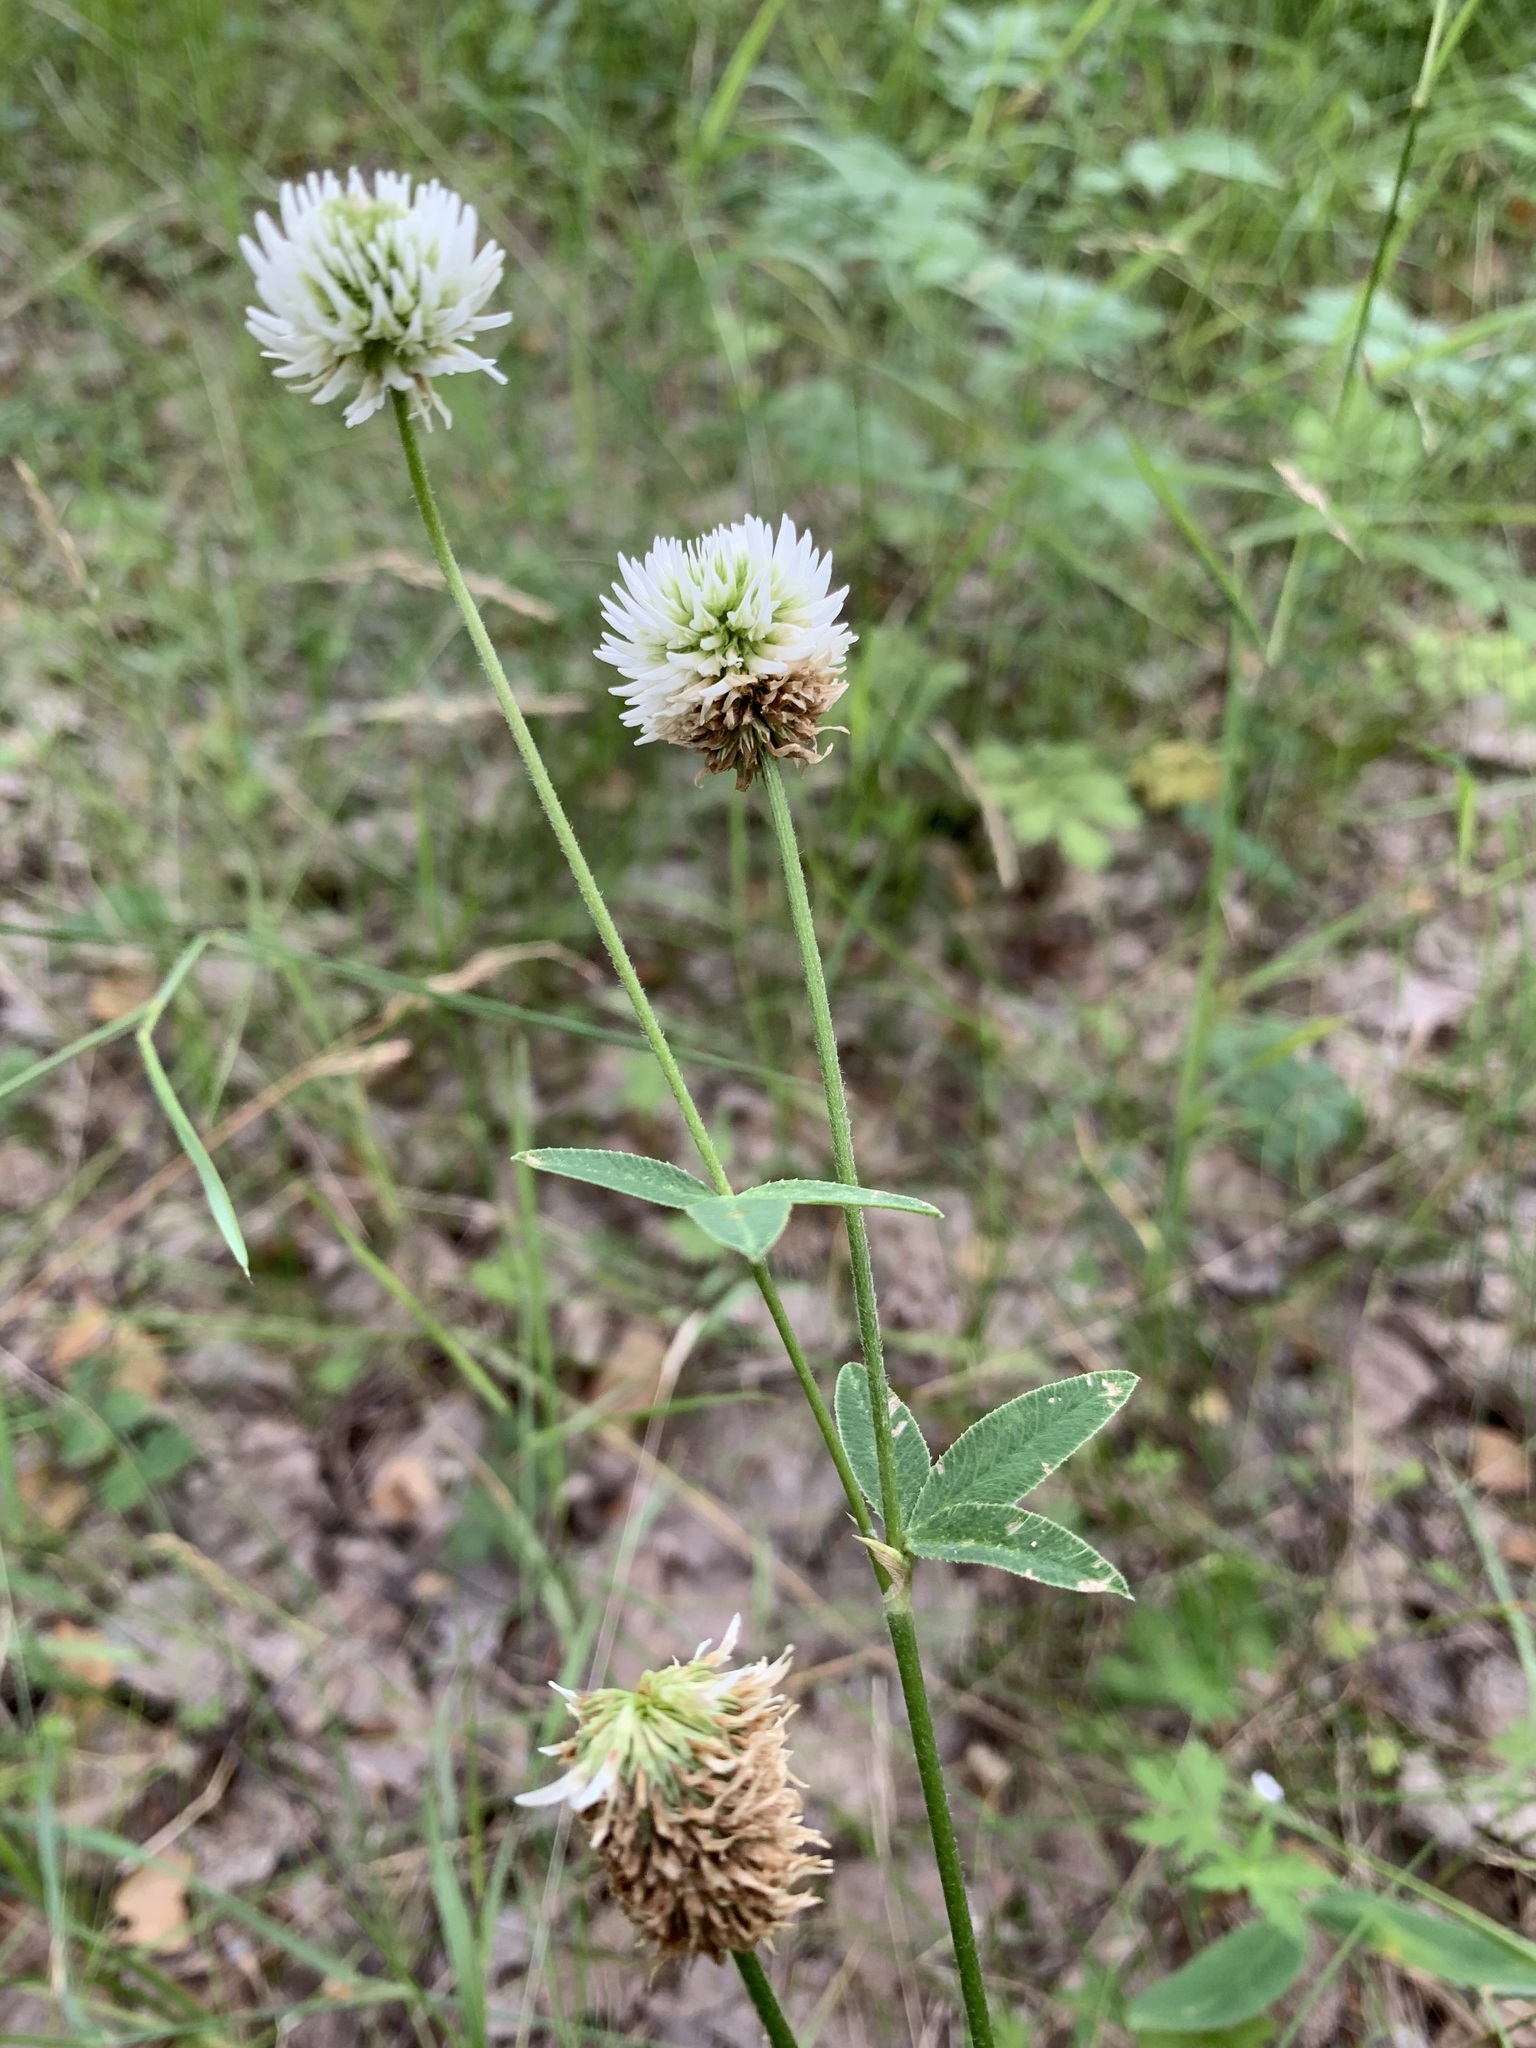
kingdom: Plantae
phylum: Tracheophyta
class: Magnoliopsida
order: Fabales
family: Fabaceae
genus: Trifolium
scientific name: Trifolium montanum
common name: Mountain clover
